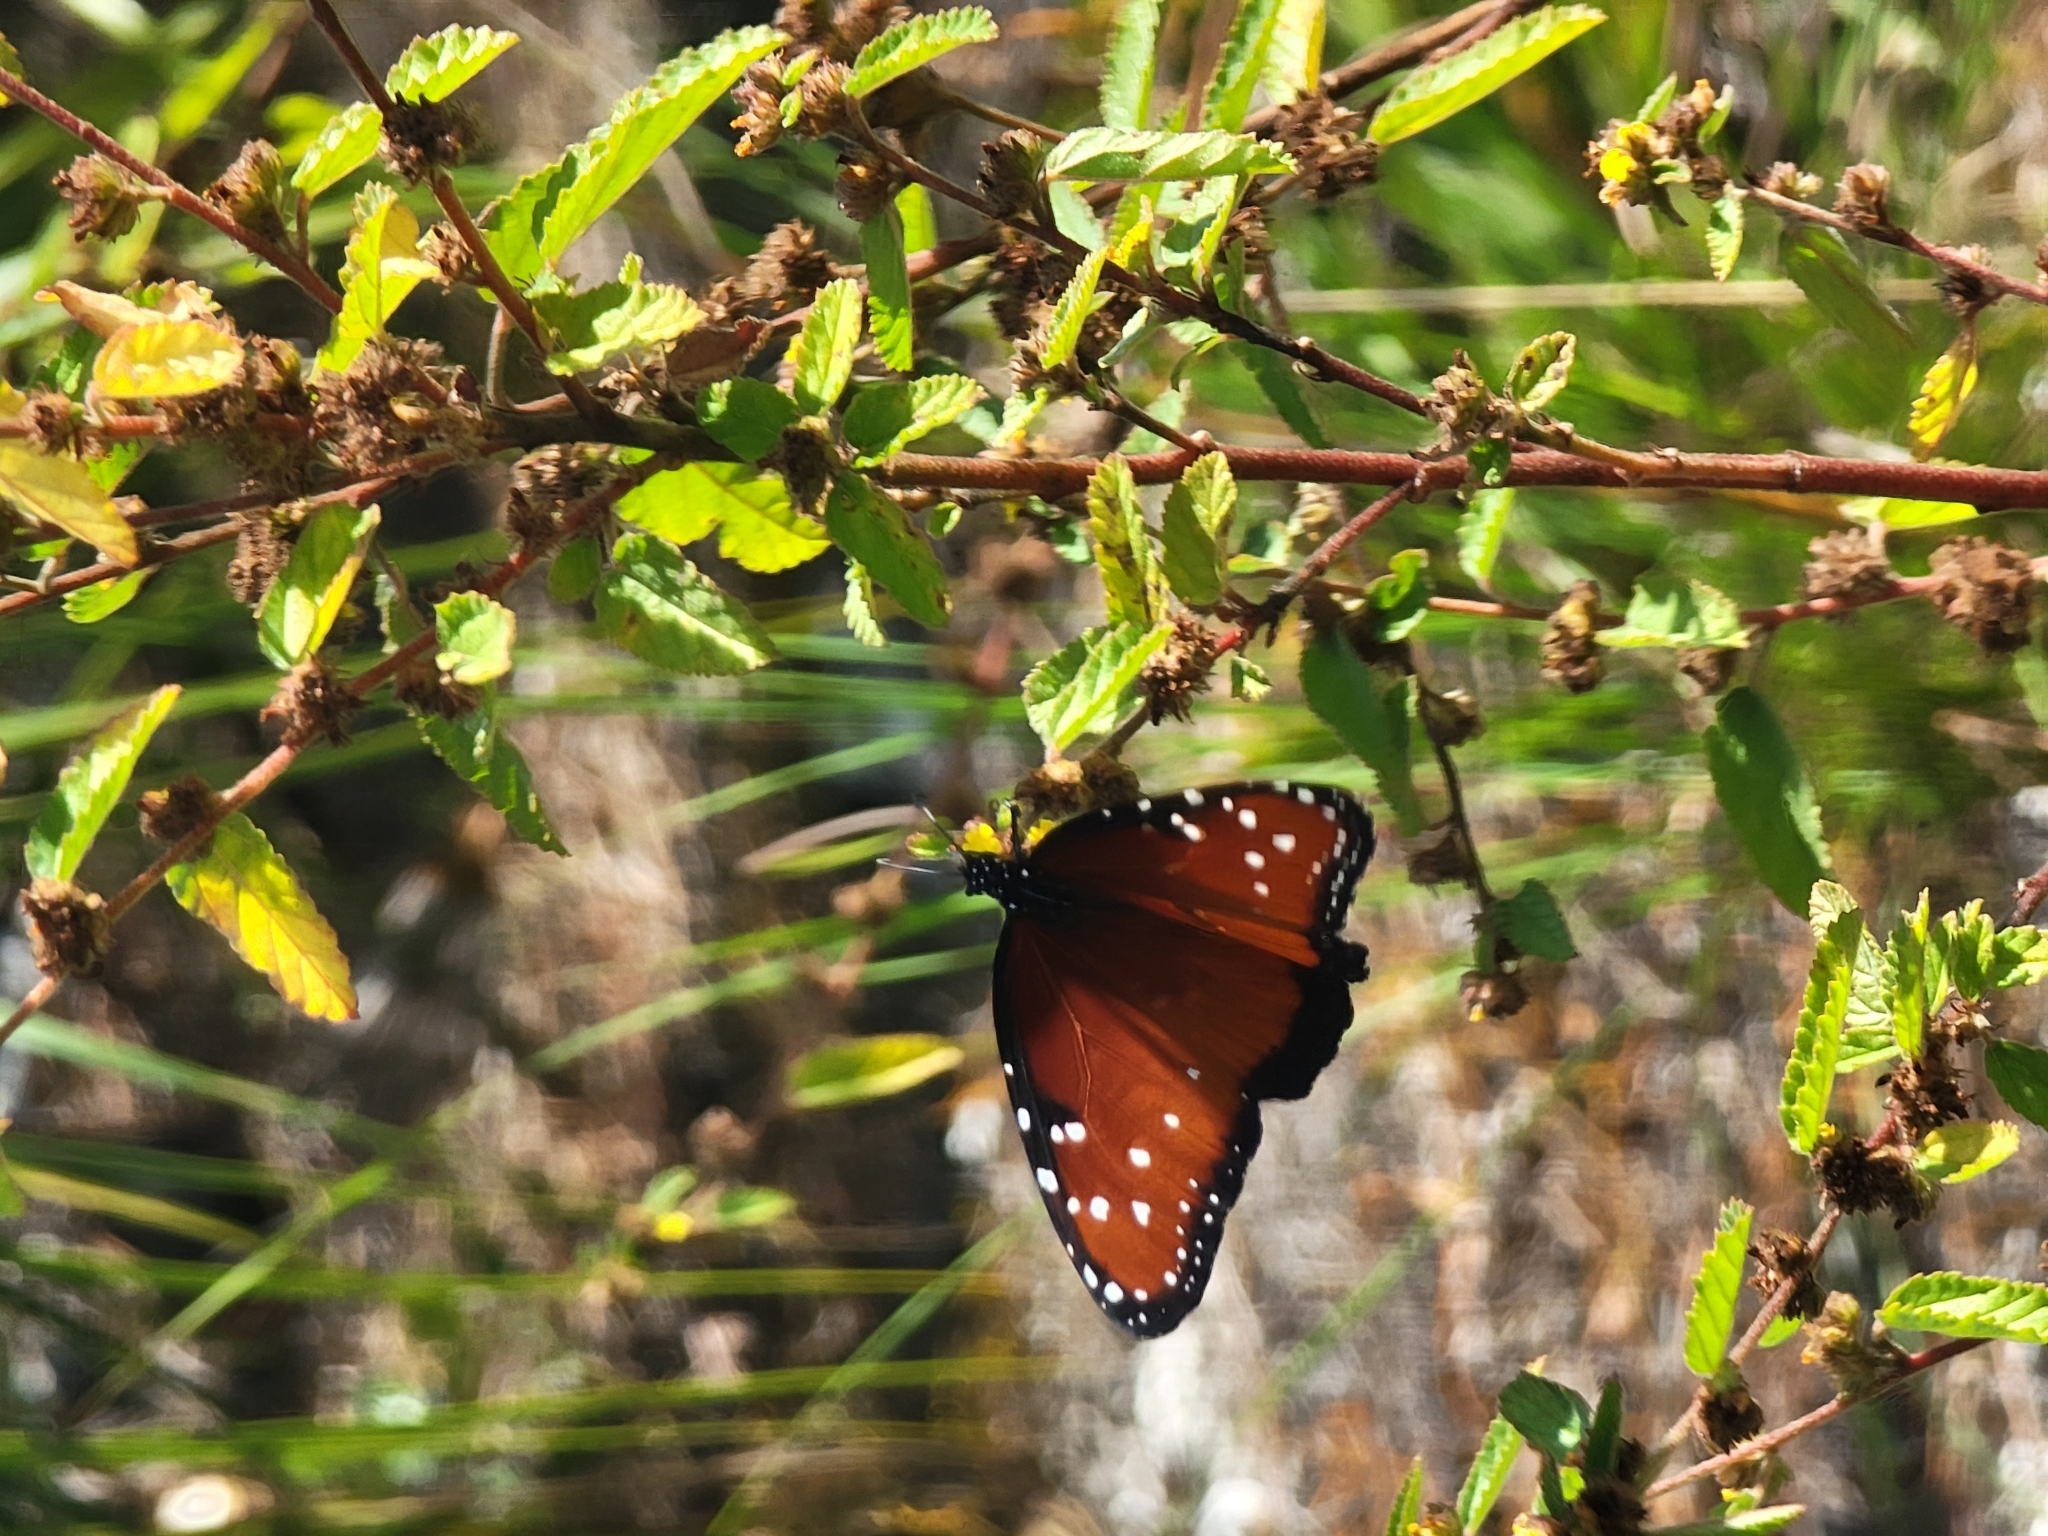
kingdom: Animalia
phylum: Arthropoda
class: Insecta
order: Lepidoptera
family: Nymphalidae
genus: Danaus
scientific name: Danaus gilippus
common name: Queen
